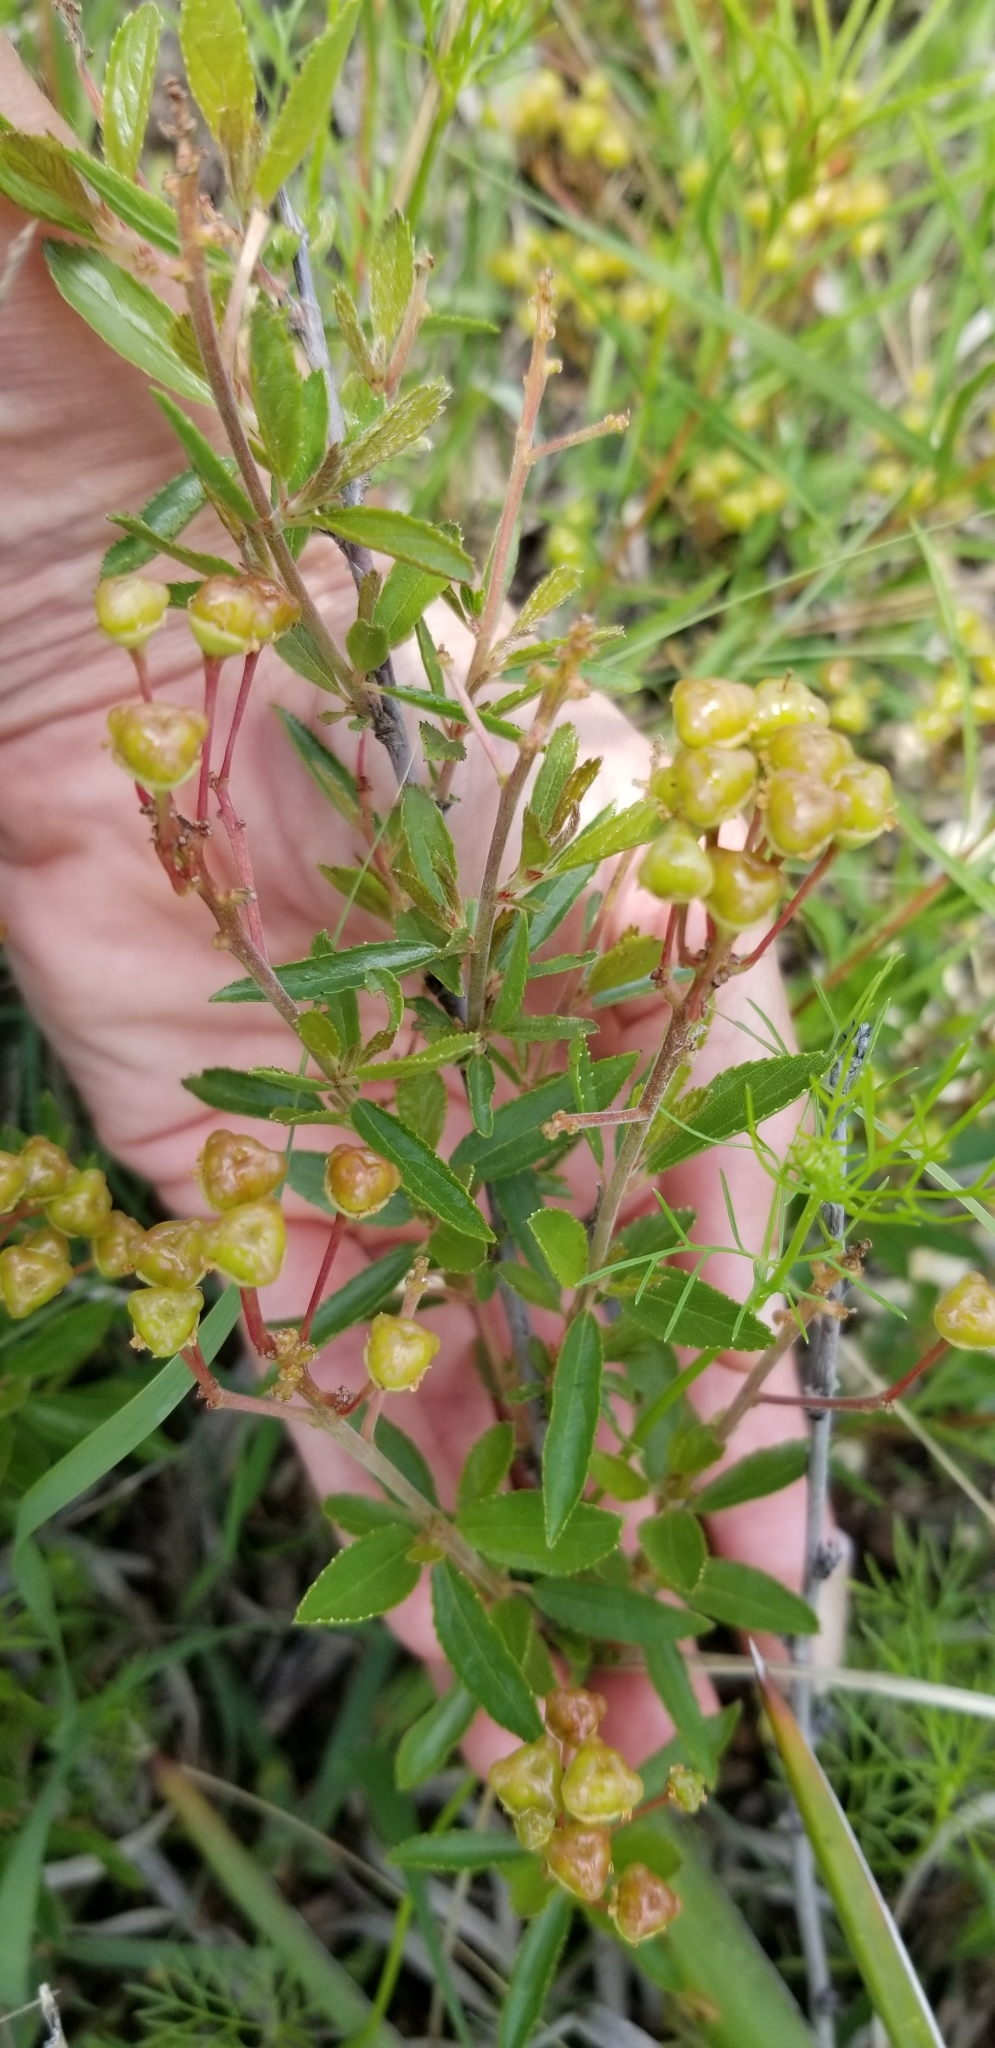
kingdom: Plantae
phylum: Tracheophyta
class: Magnoliopsida
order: Rosales
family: Rhamnaceae
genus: Ceanothus
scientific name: Ceanothus herbaceus
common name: Inland ceanothus
